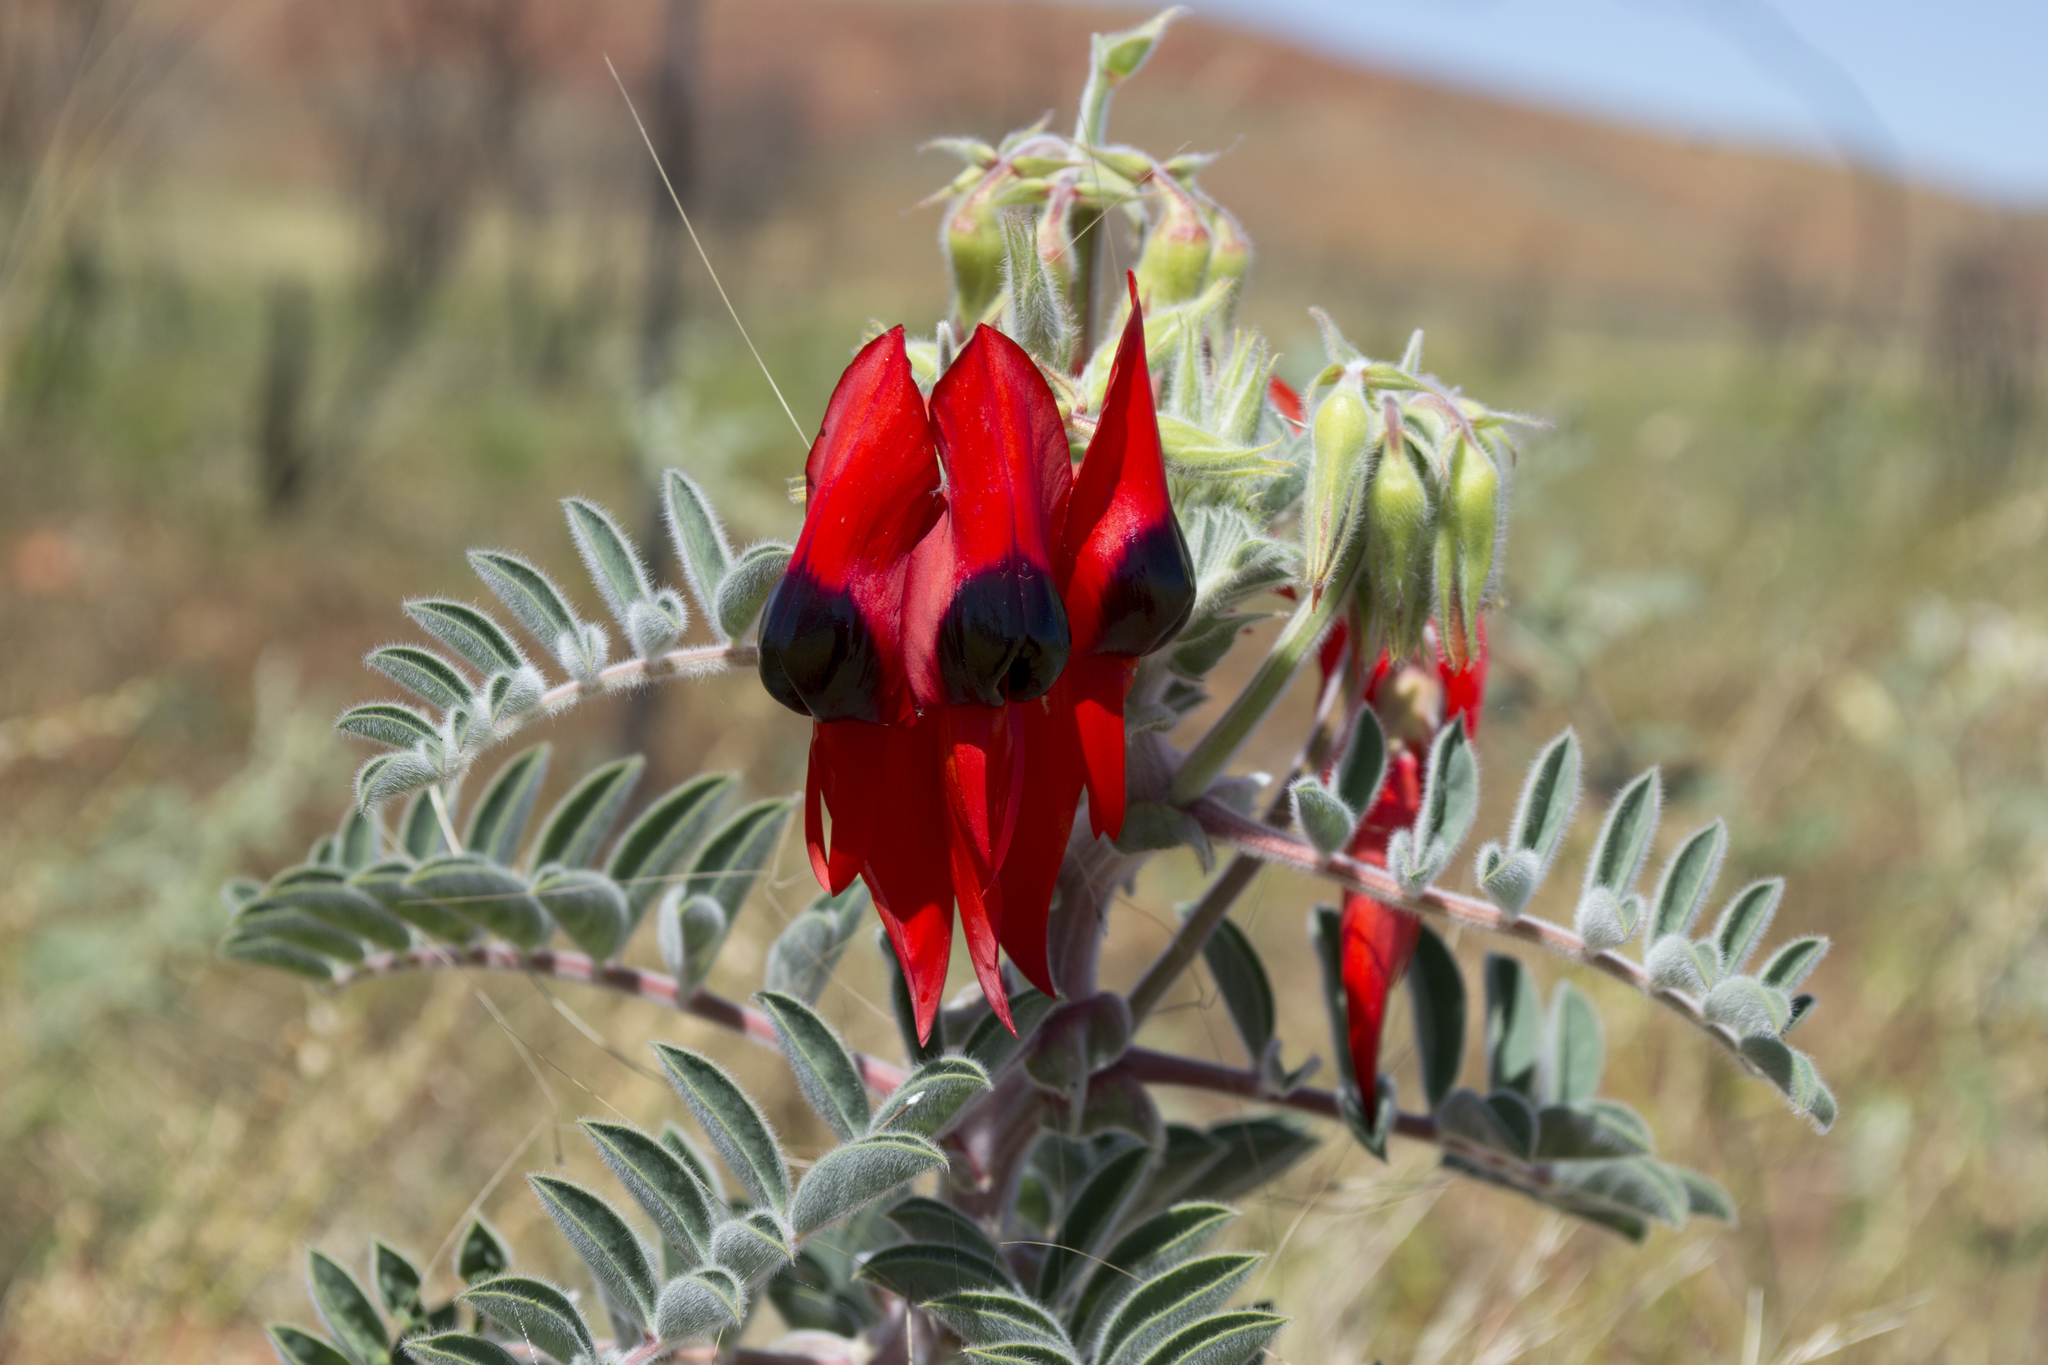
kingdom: Plantae
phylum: Tracheophyta
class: Magnoliopsida
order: Fabales
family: Fabaceae
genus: Swainsona
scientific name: Swainsona formosa
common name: Sturt's desert-pea
